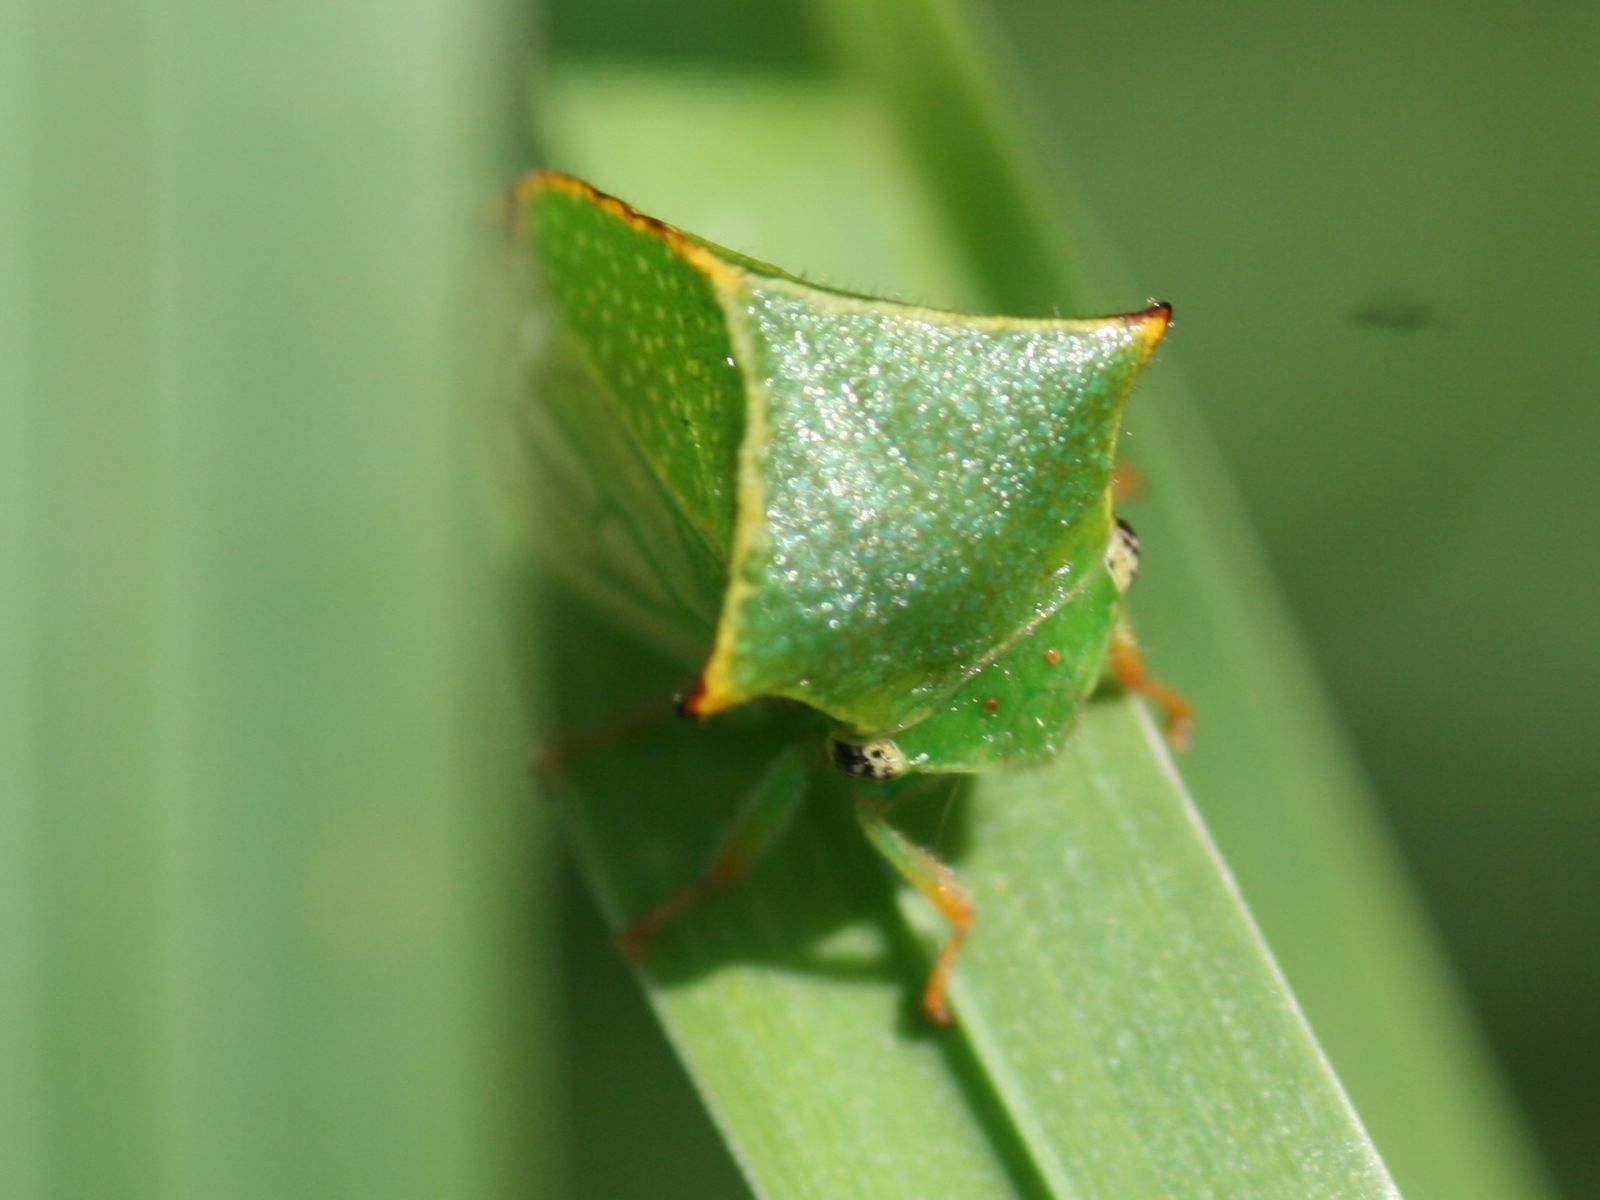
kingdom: Animalia
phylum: Arthropoda
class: Insecta
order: Hemiptera
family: Membracidae
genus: Stictocephala
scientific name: Stictocephala bisonia
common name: American buffalo treehopper
